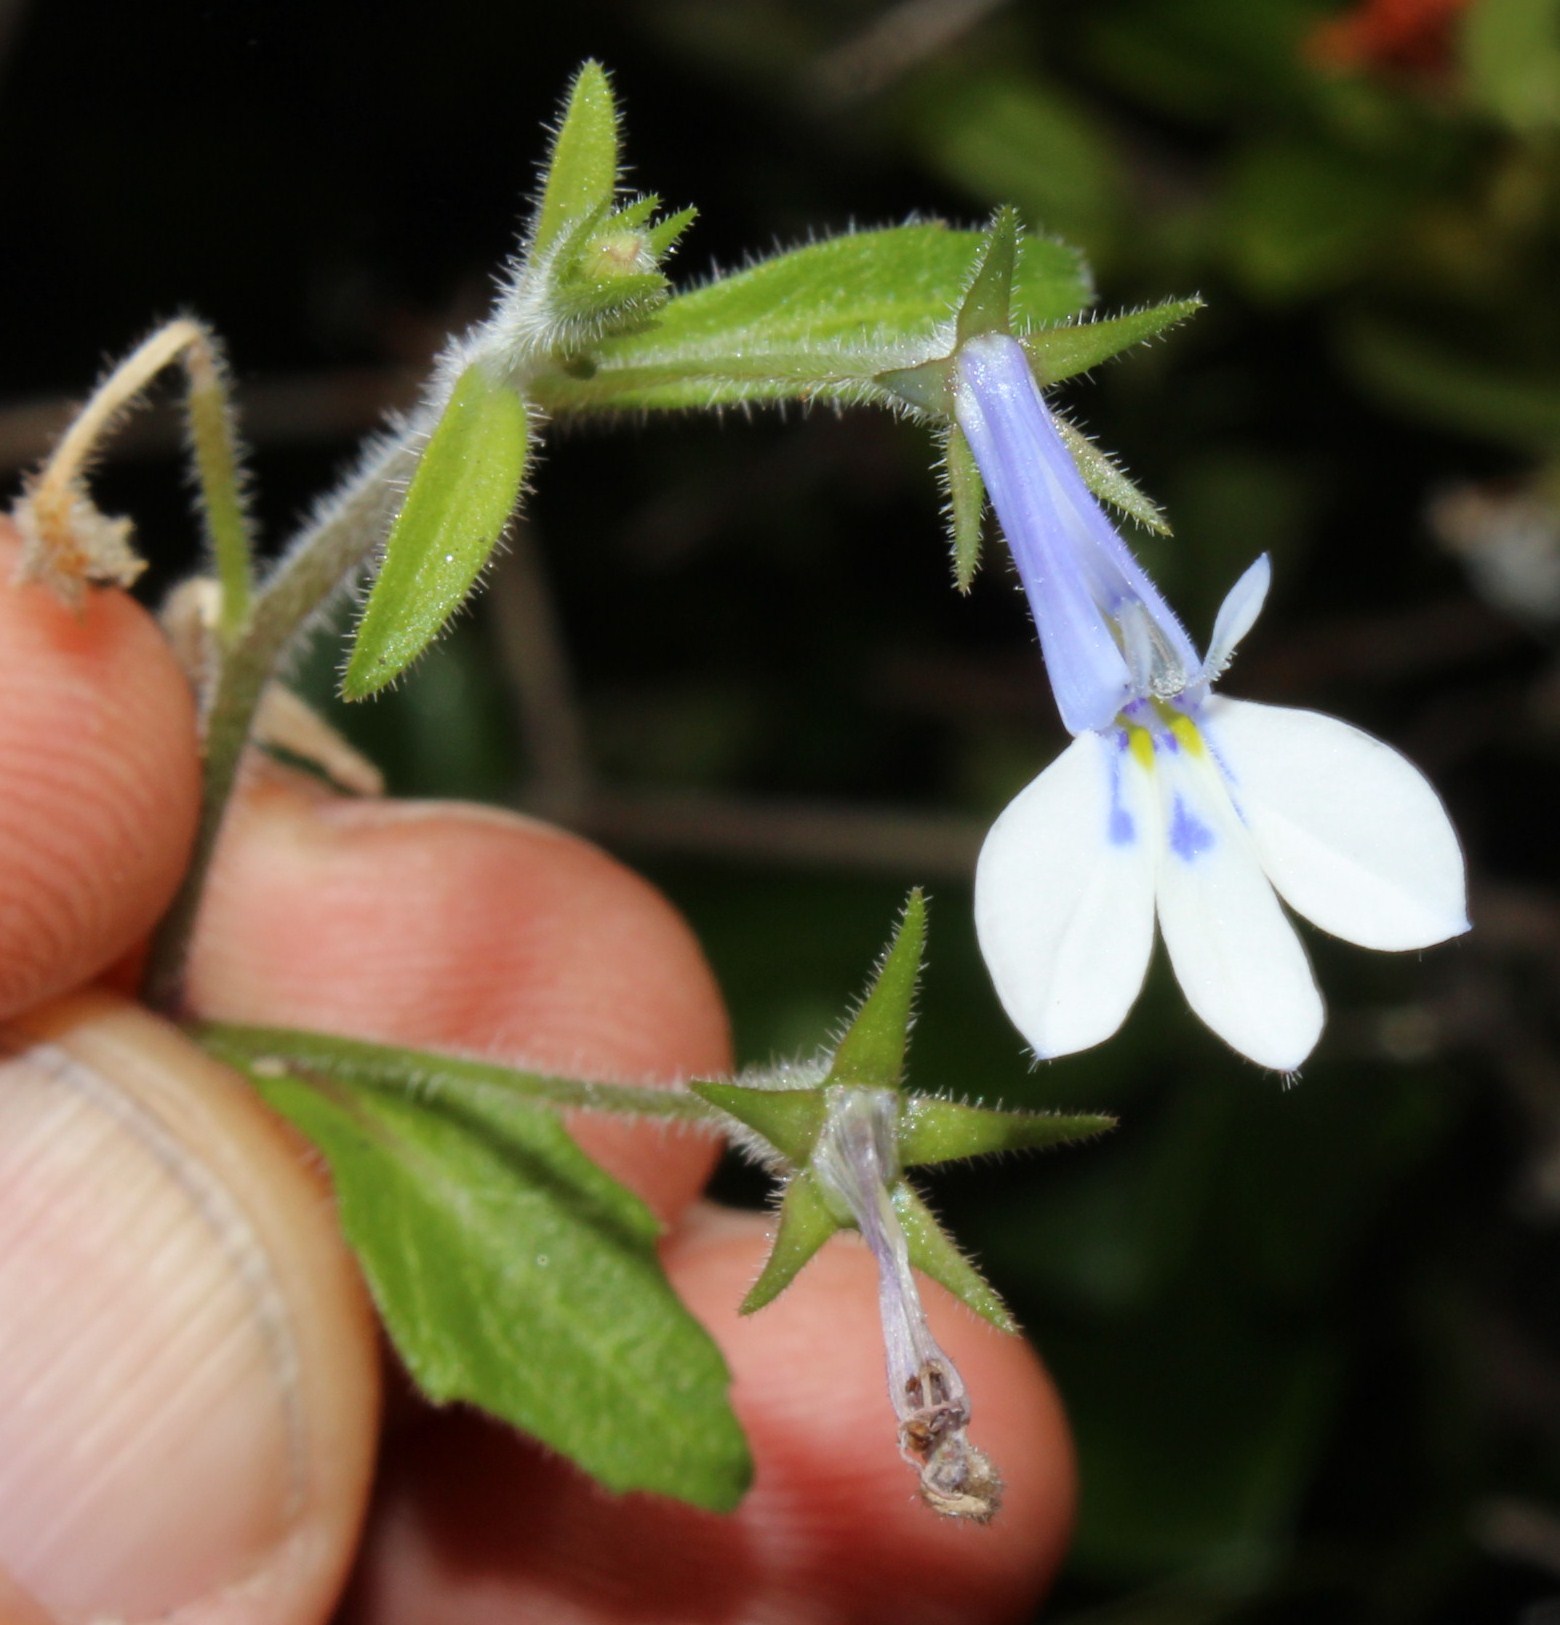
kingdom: Plantae
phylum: Tracheophyta
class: Magnoliopsida
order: Asterales
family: Campanulaceae
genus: Lobelia
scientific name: Lobelia cuneifolia
